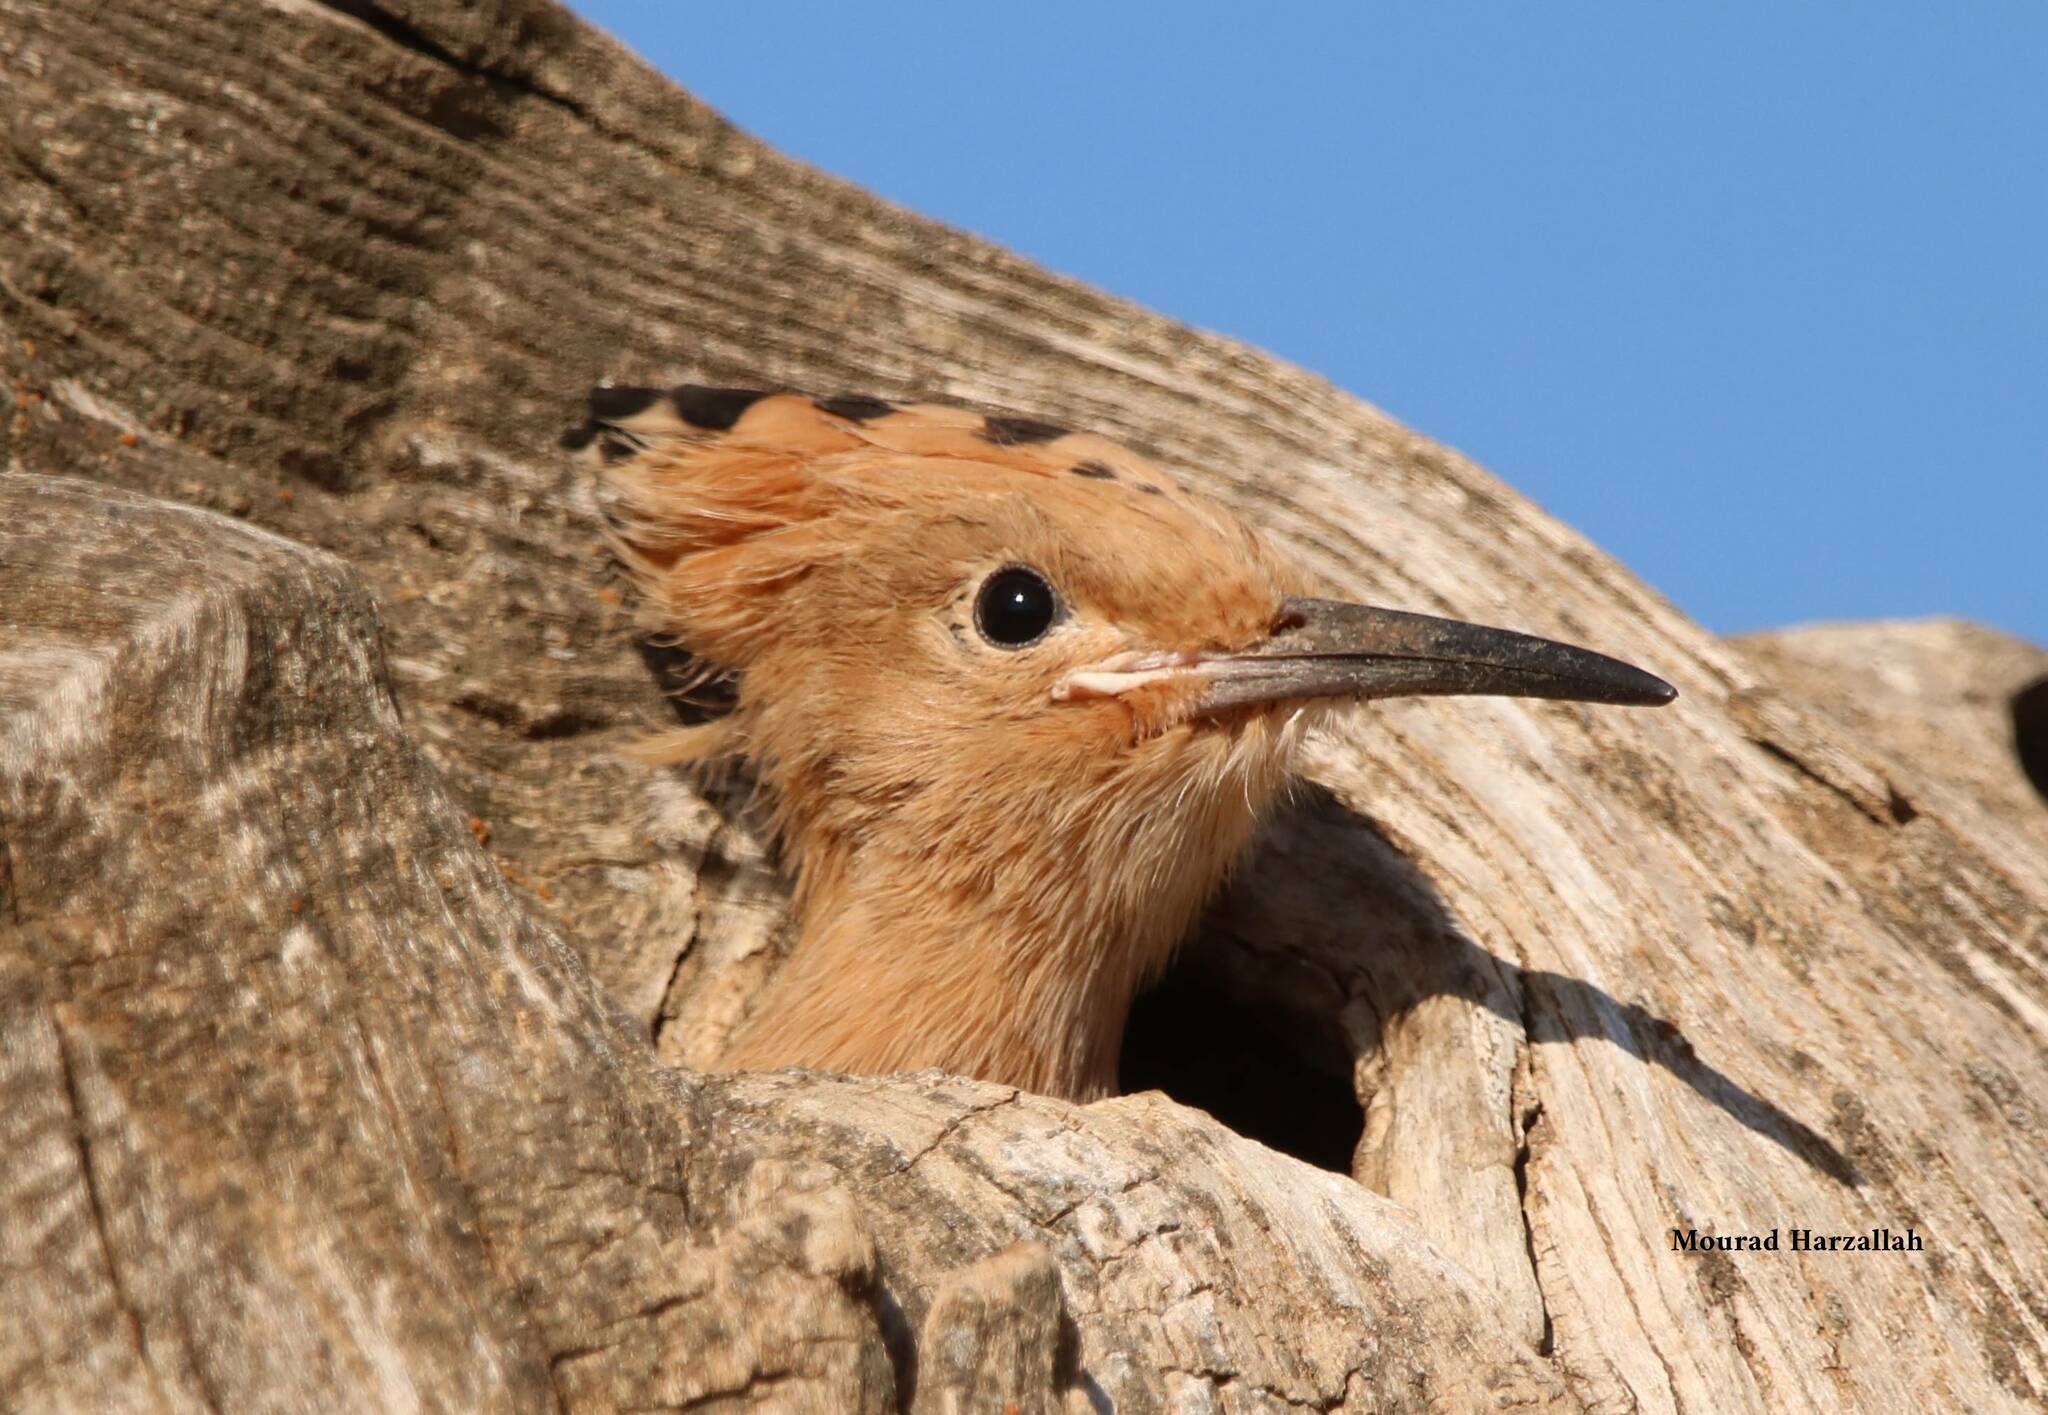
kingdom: Animalia
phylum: Chordata
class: Aves
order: Bucerotiformes
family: Upupidae
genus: Upupa
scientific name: Upupa epops
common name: Eurasian hoopoe
